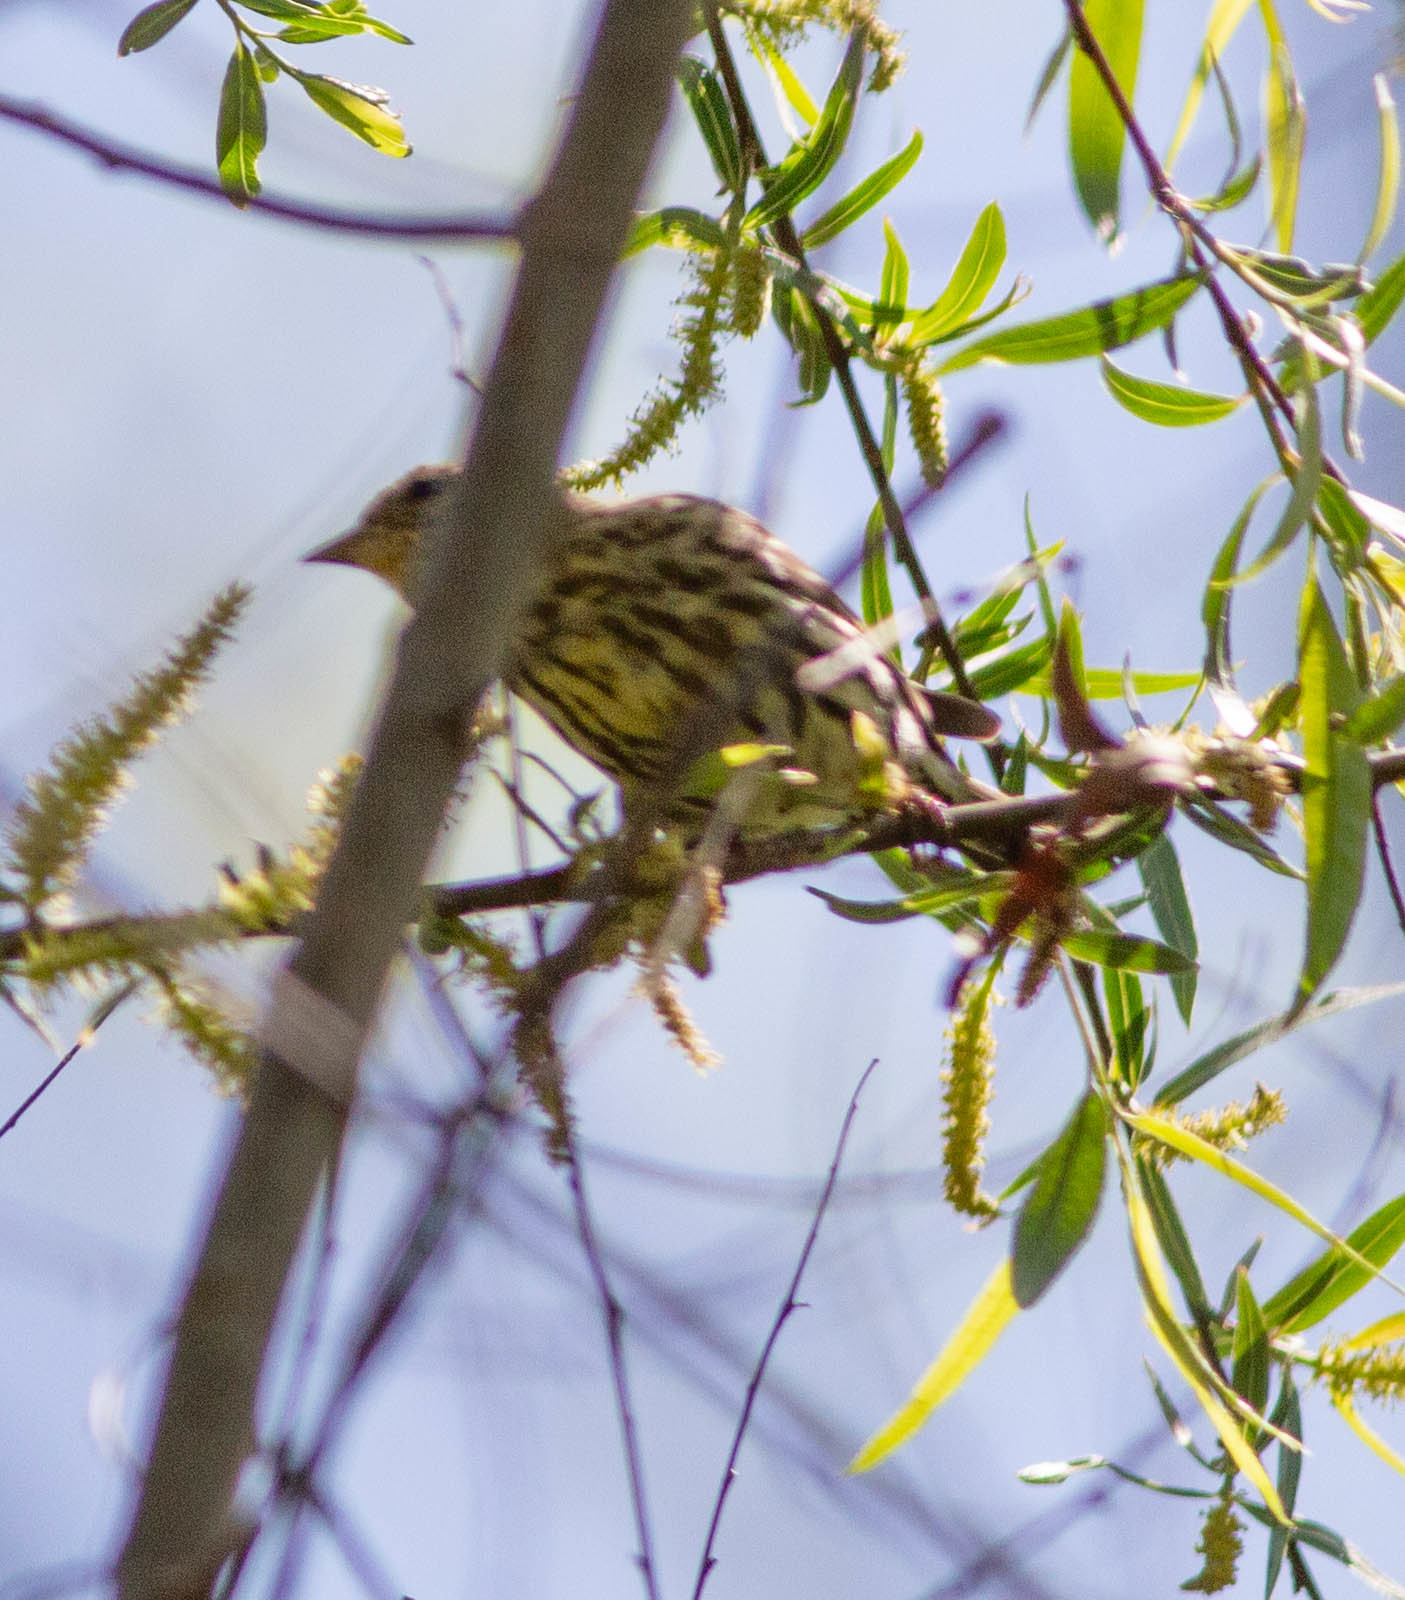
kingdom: Animalia
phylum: Chordata
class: Aves
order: Passeriformes
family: Fringillidae
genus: Spinus
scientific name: Spinus pinus
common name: Pine siskin
